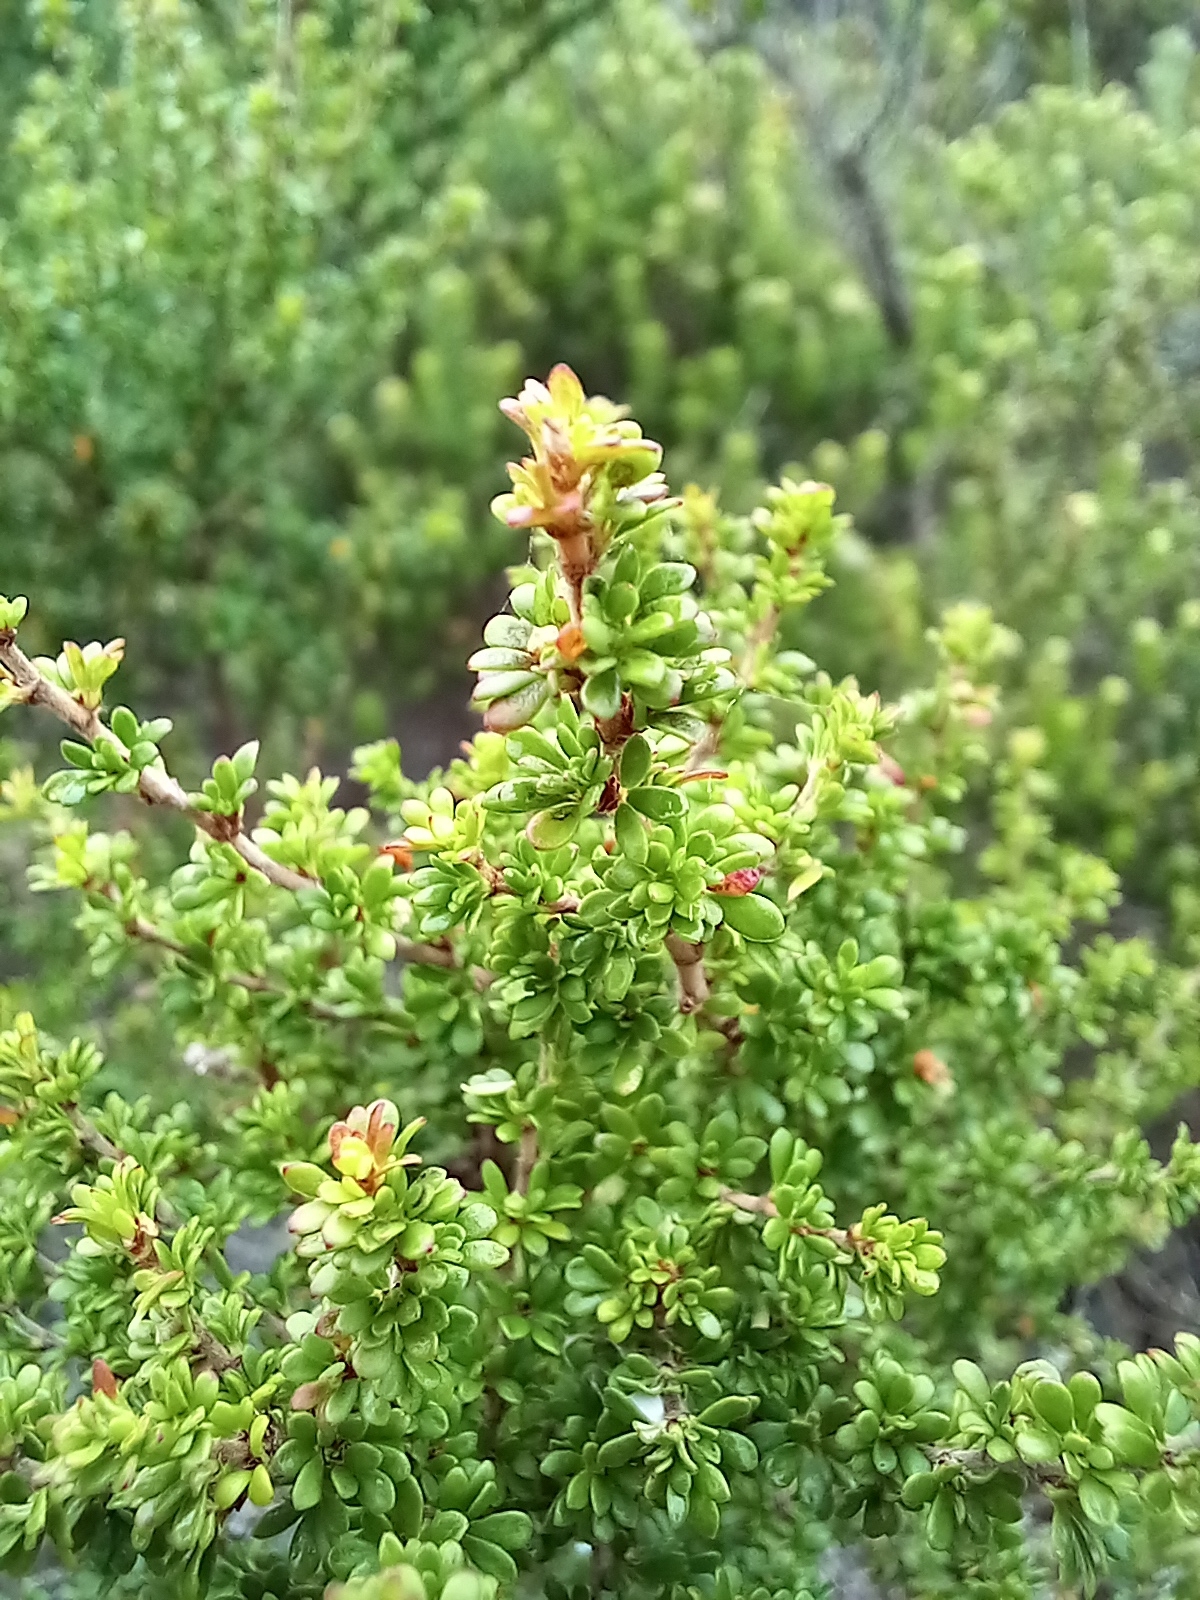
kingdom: Plantae
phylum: Tracheophyta
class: Magnoliopsida
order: Rosales
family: Rosaceae
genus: Cliffortia
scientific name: Cliffortia serpyllifolia
